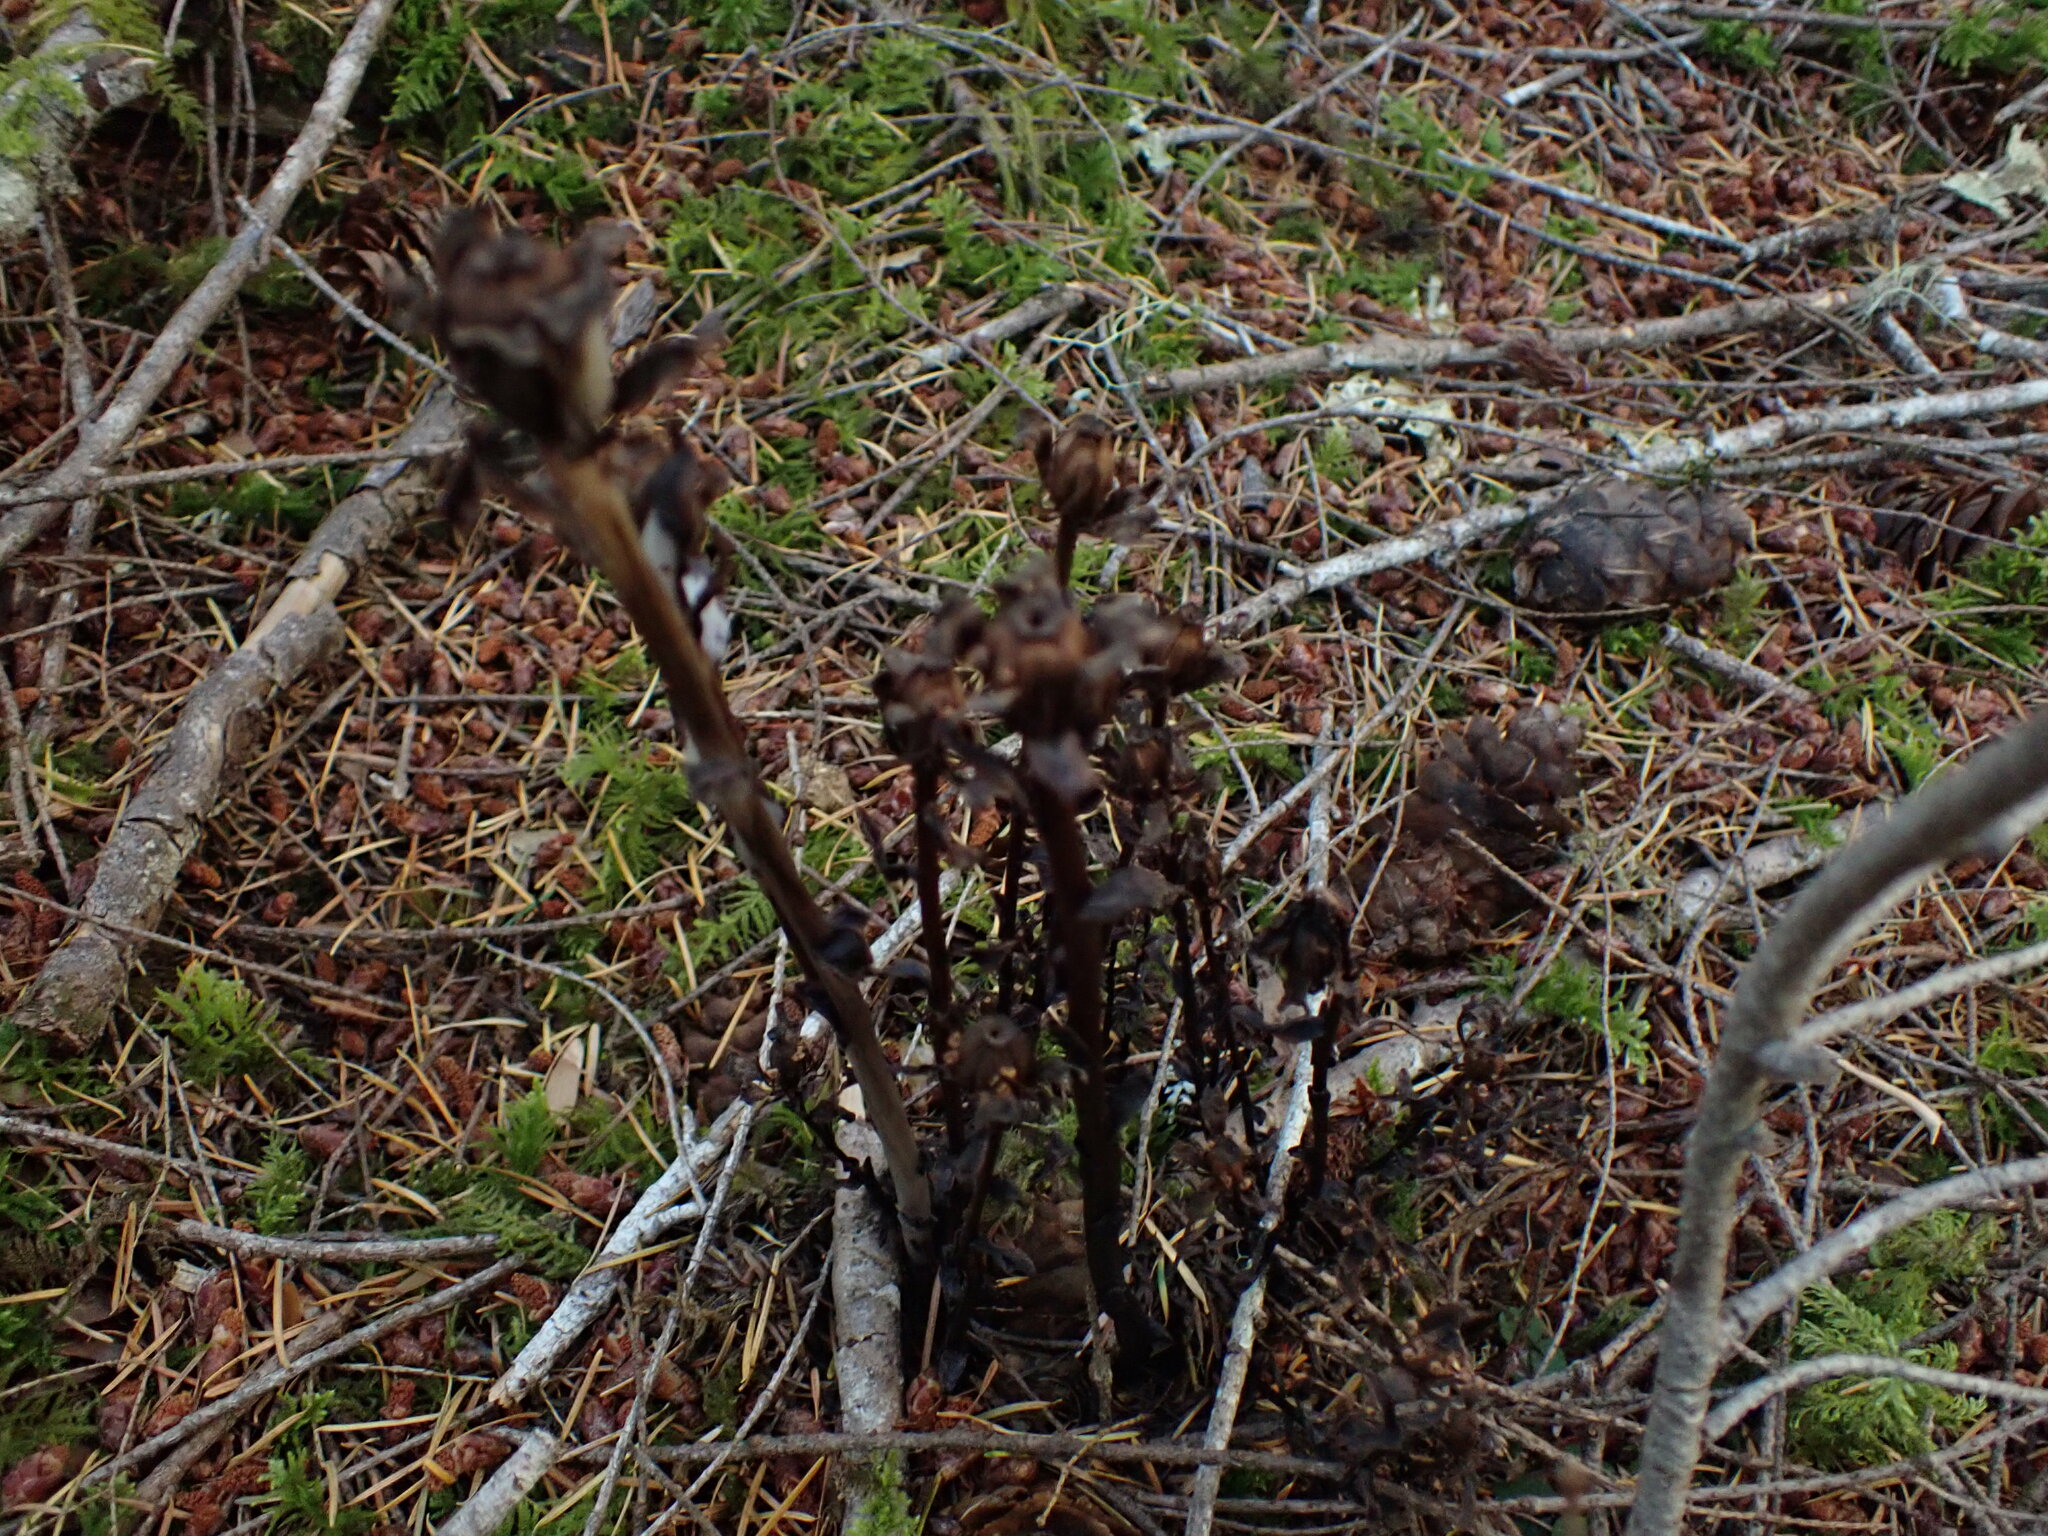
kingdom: Plantae
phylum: Tracheophyta
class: Magnoliopsida
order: Ericales
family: Ericaceae
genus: Monotropa
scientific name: Monotropa uniflora
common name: Convulsion root
